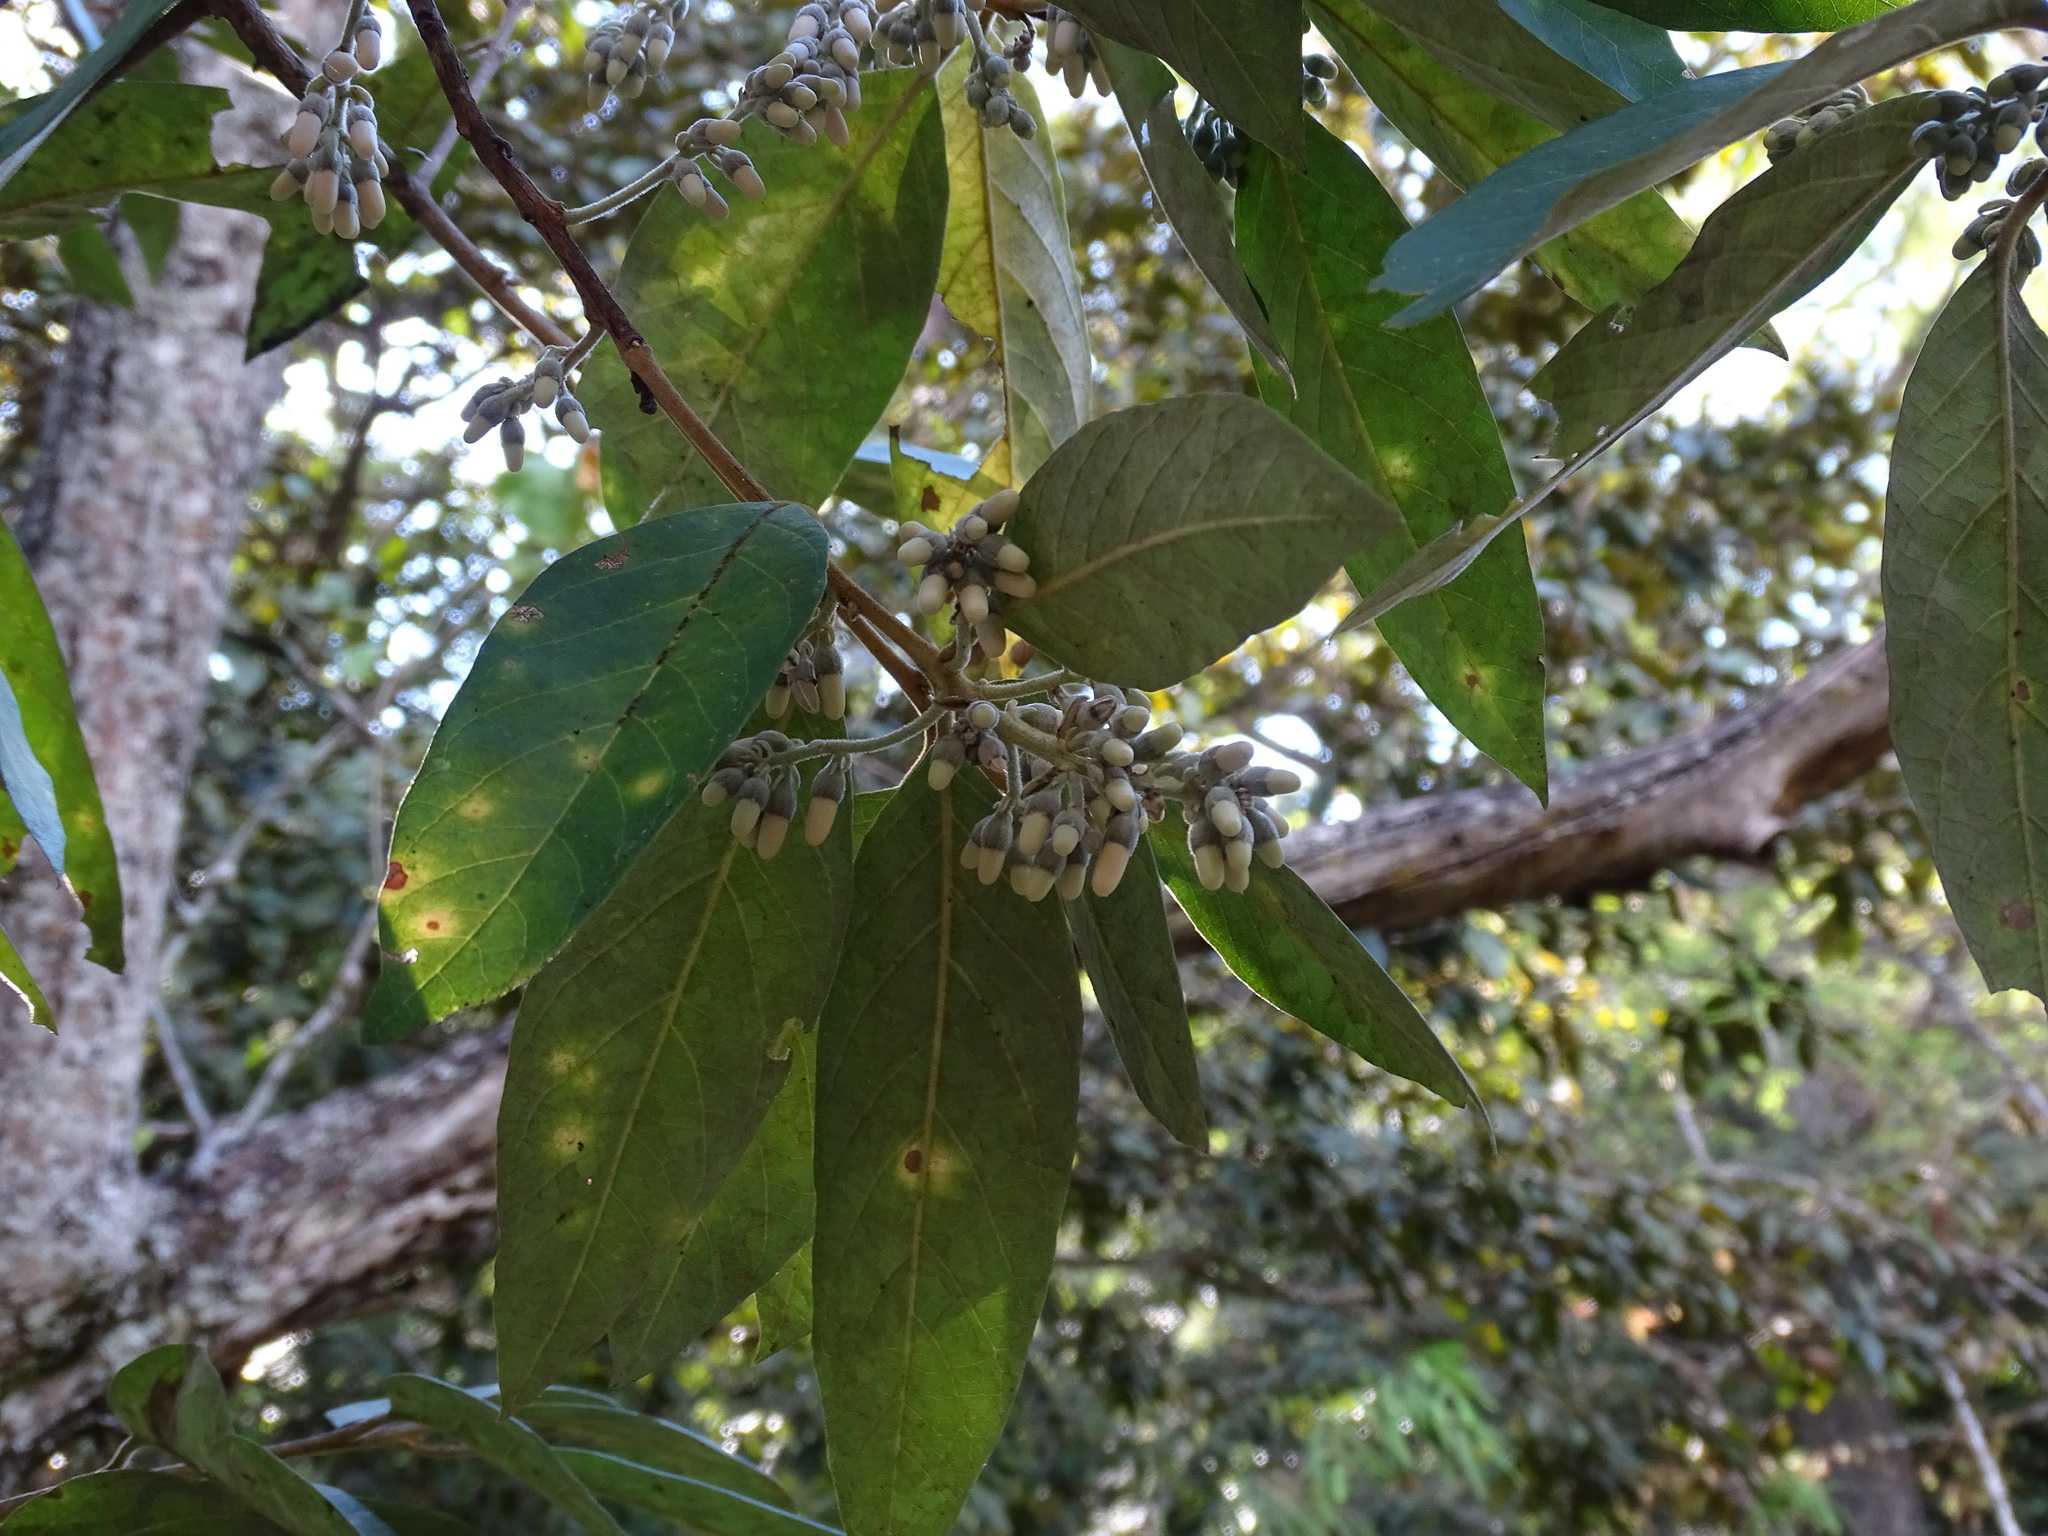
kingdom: Plantae
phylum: Tracheophyta
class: Magnoliopsida
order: Ericales
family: Styracaceae
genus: Styrax
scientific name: Styrax argenteus
